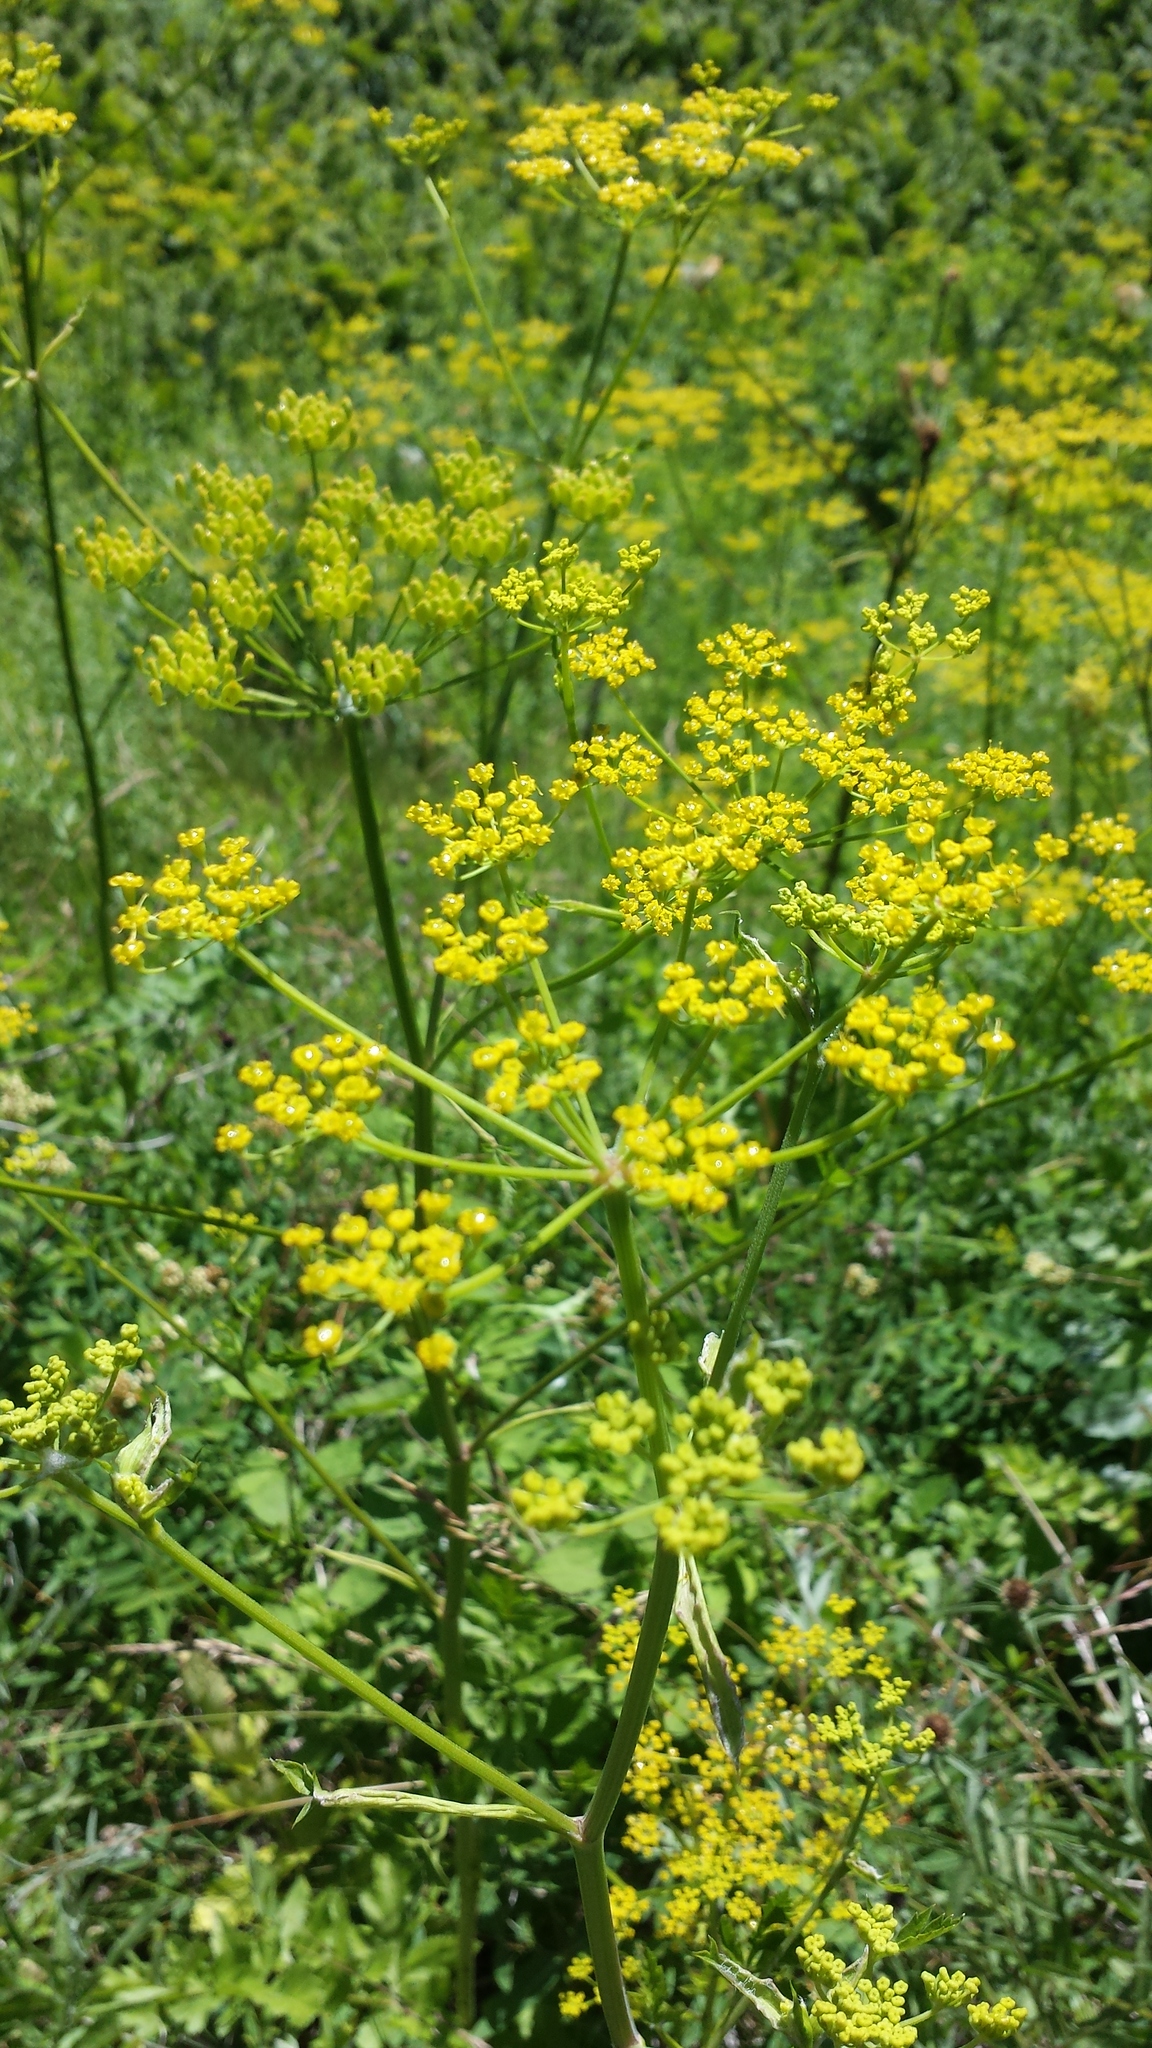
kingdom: Plantae
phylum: Tracheophyta
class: Magnoliopsida
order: Apiales
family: Apiaceae
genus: Pastinaca
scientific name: Pastinaca sativa
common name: Wild parsnip
